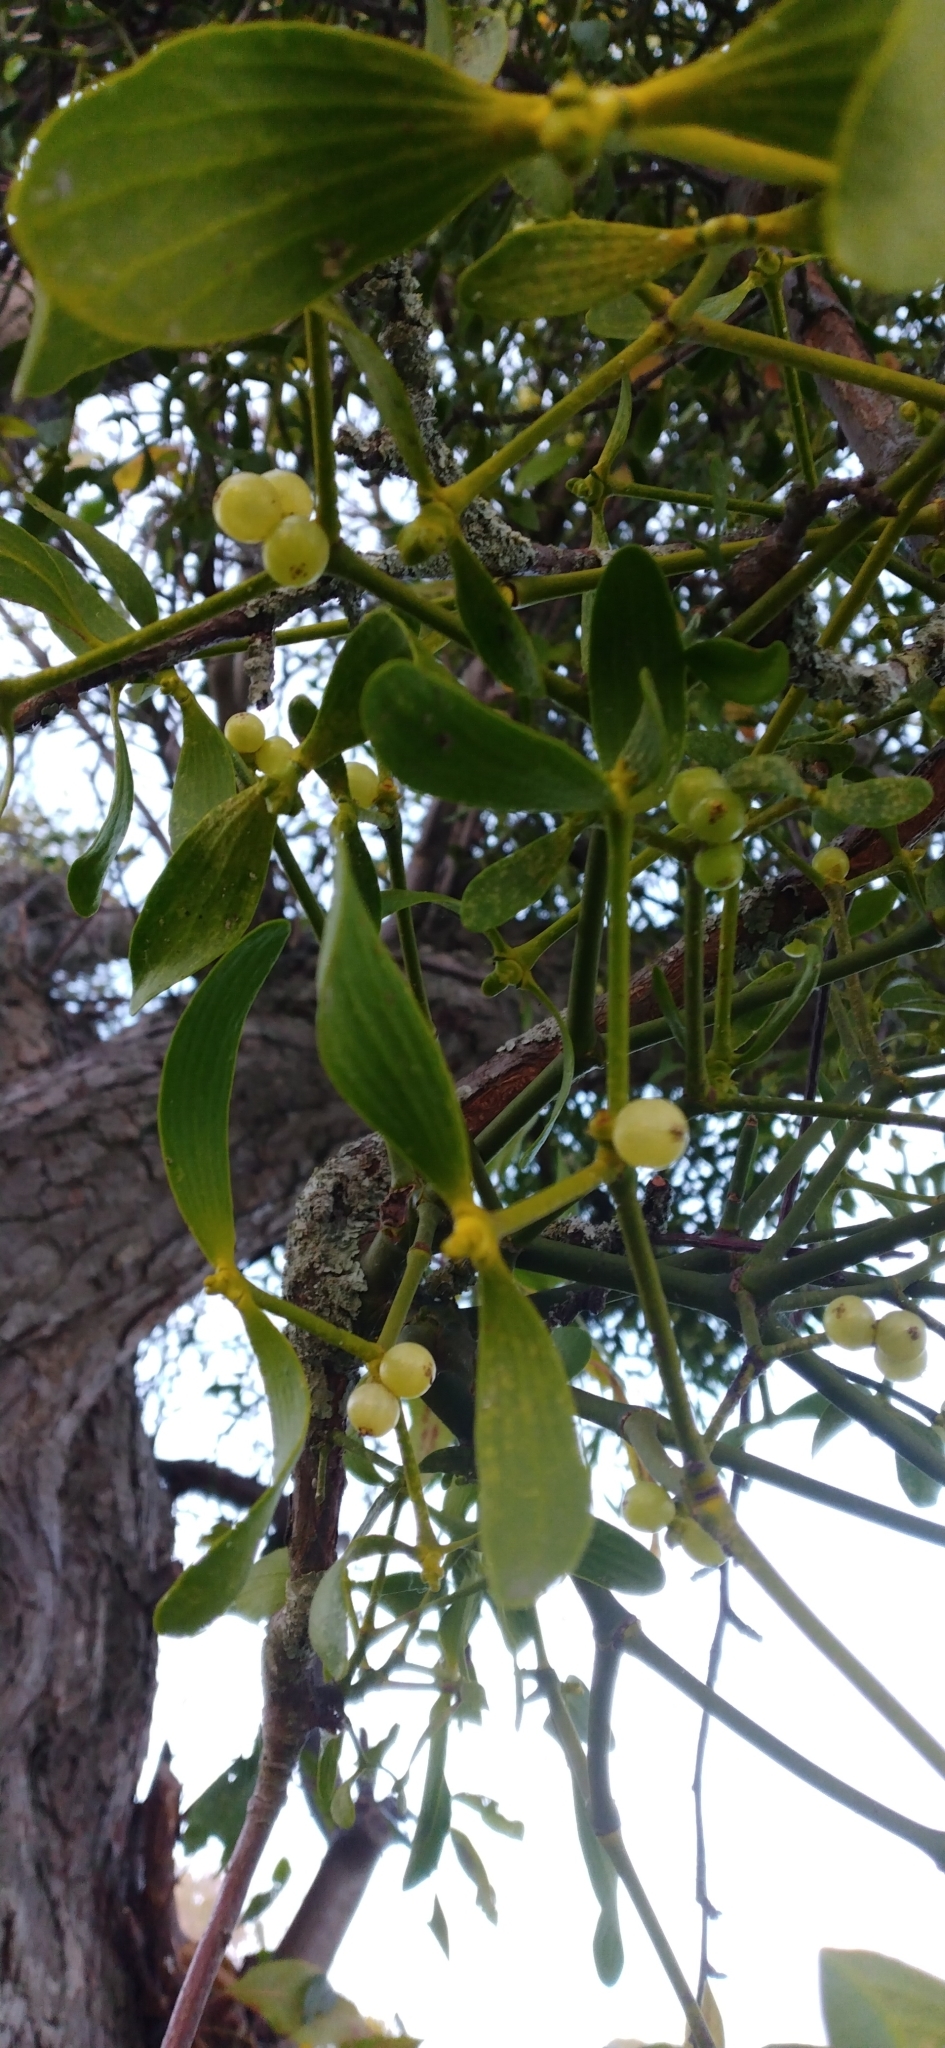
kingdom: Plantae
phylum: Tracheophyta
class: Magnoliopsida
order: Santalales
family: Viscaceae
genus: Viscum
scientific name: Viscum album
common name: Mistletoe
